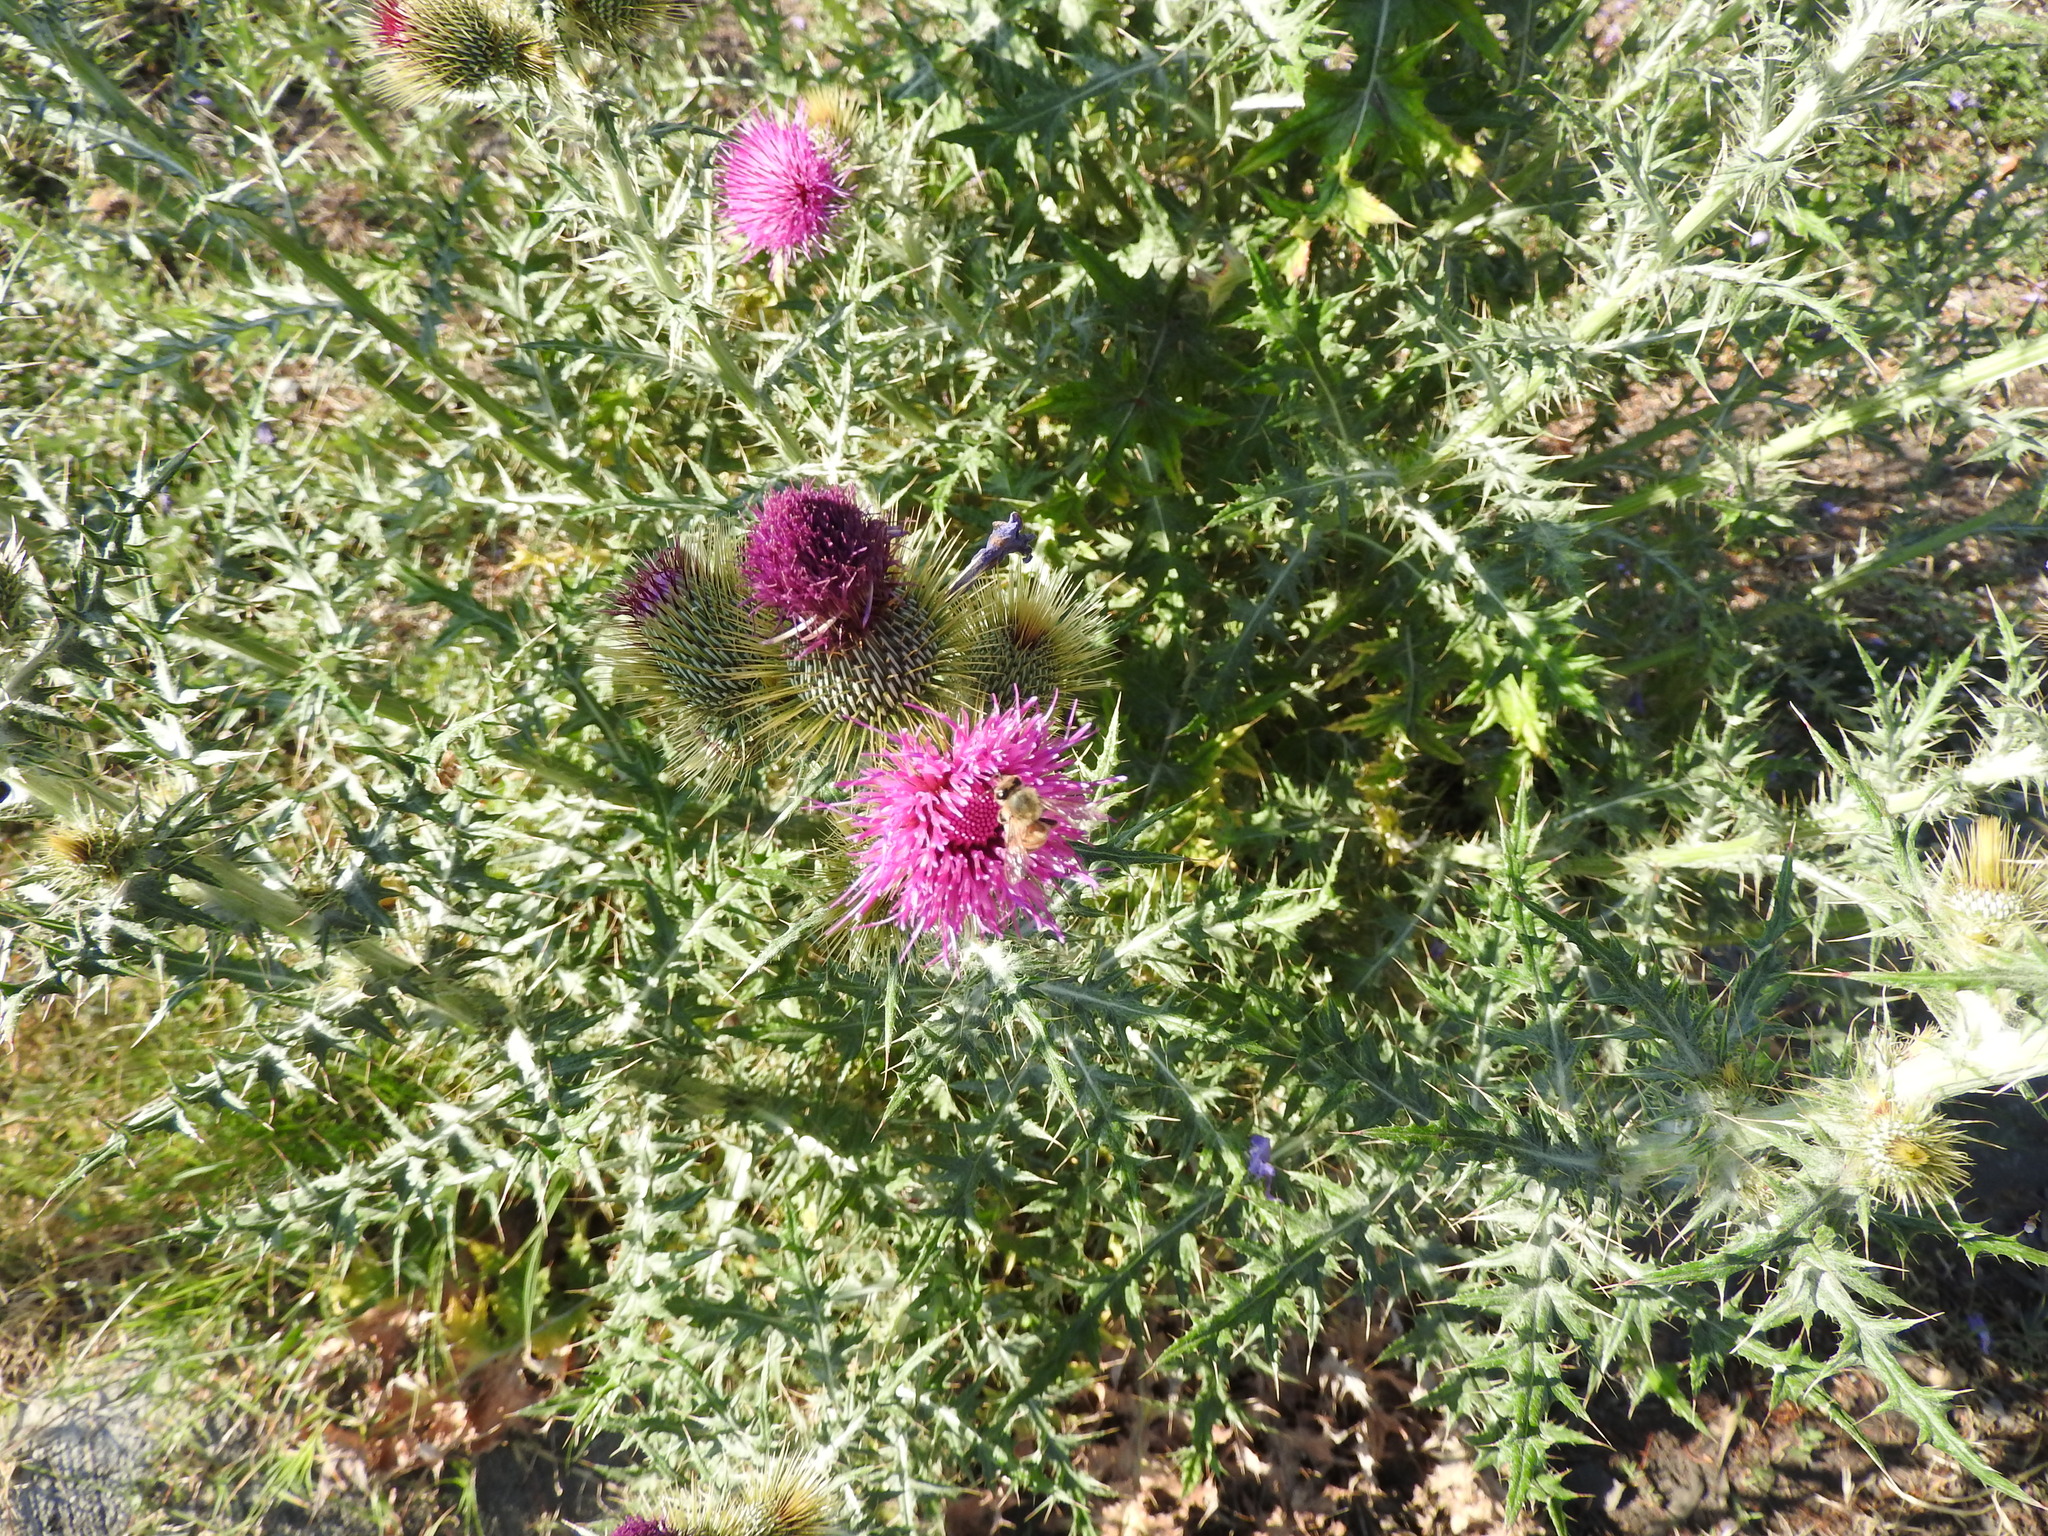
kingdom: Animalia
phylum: Arthropoda
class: Insecta
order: Hymenoptera
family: Apidae
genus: Apis
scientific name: Apis mellifera
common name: Honey bee
